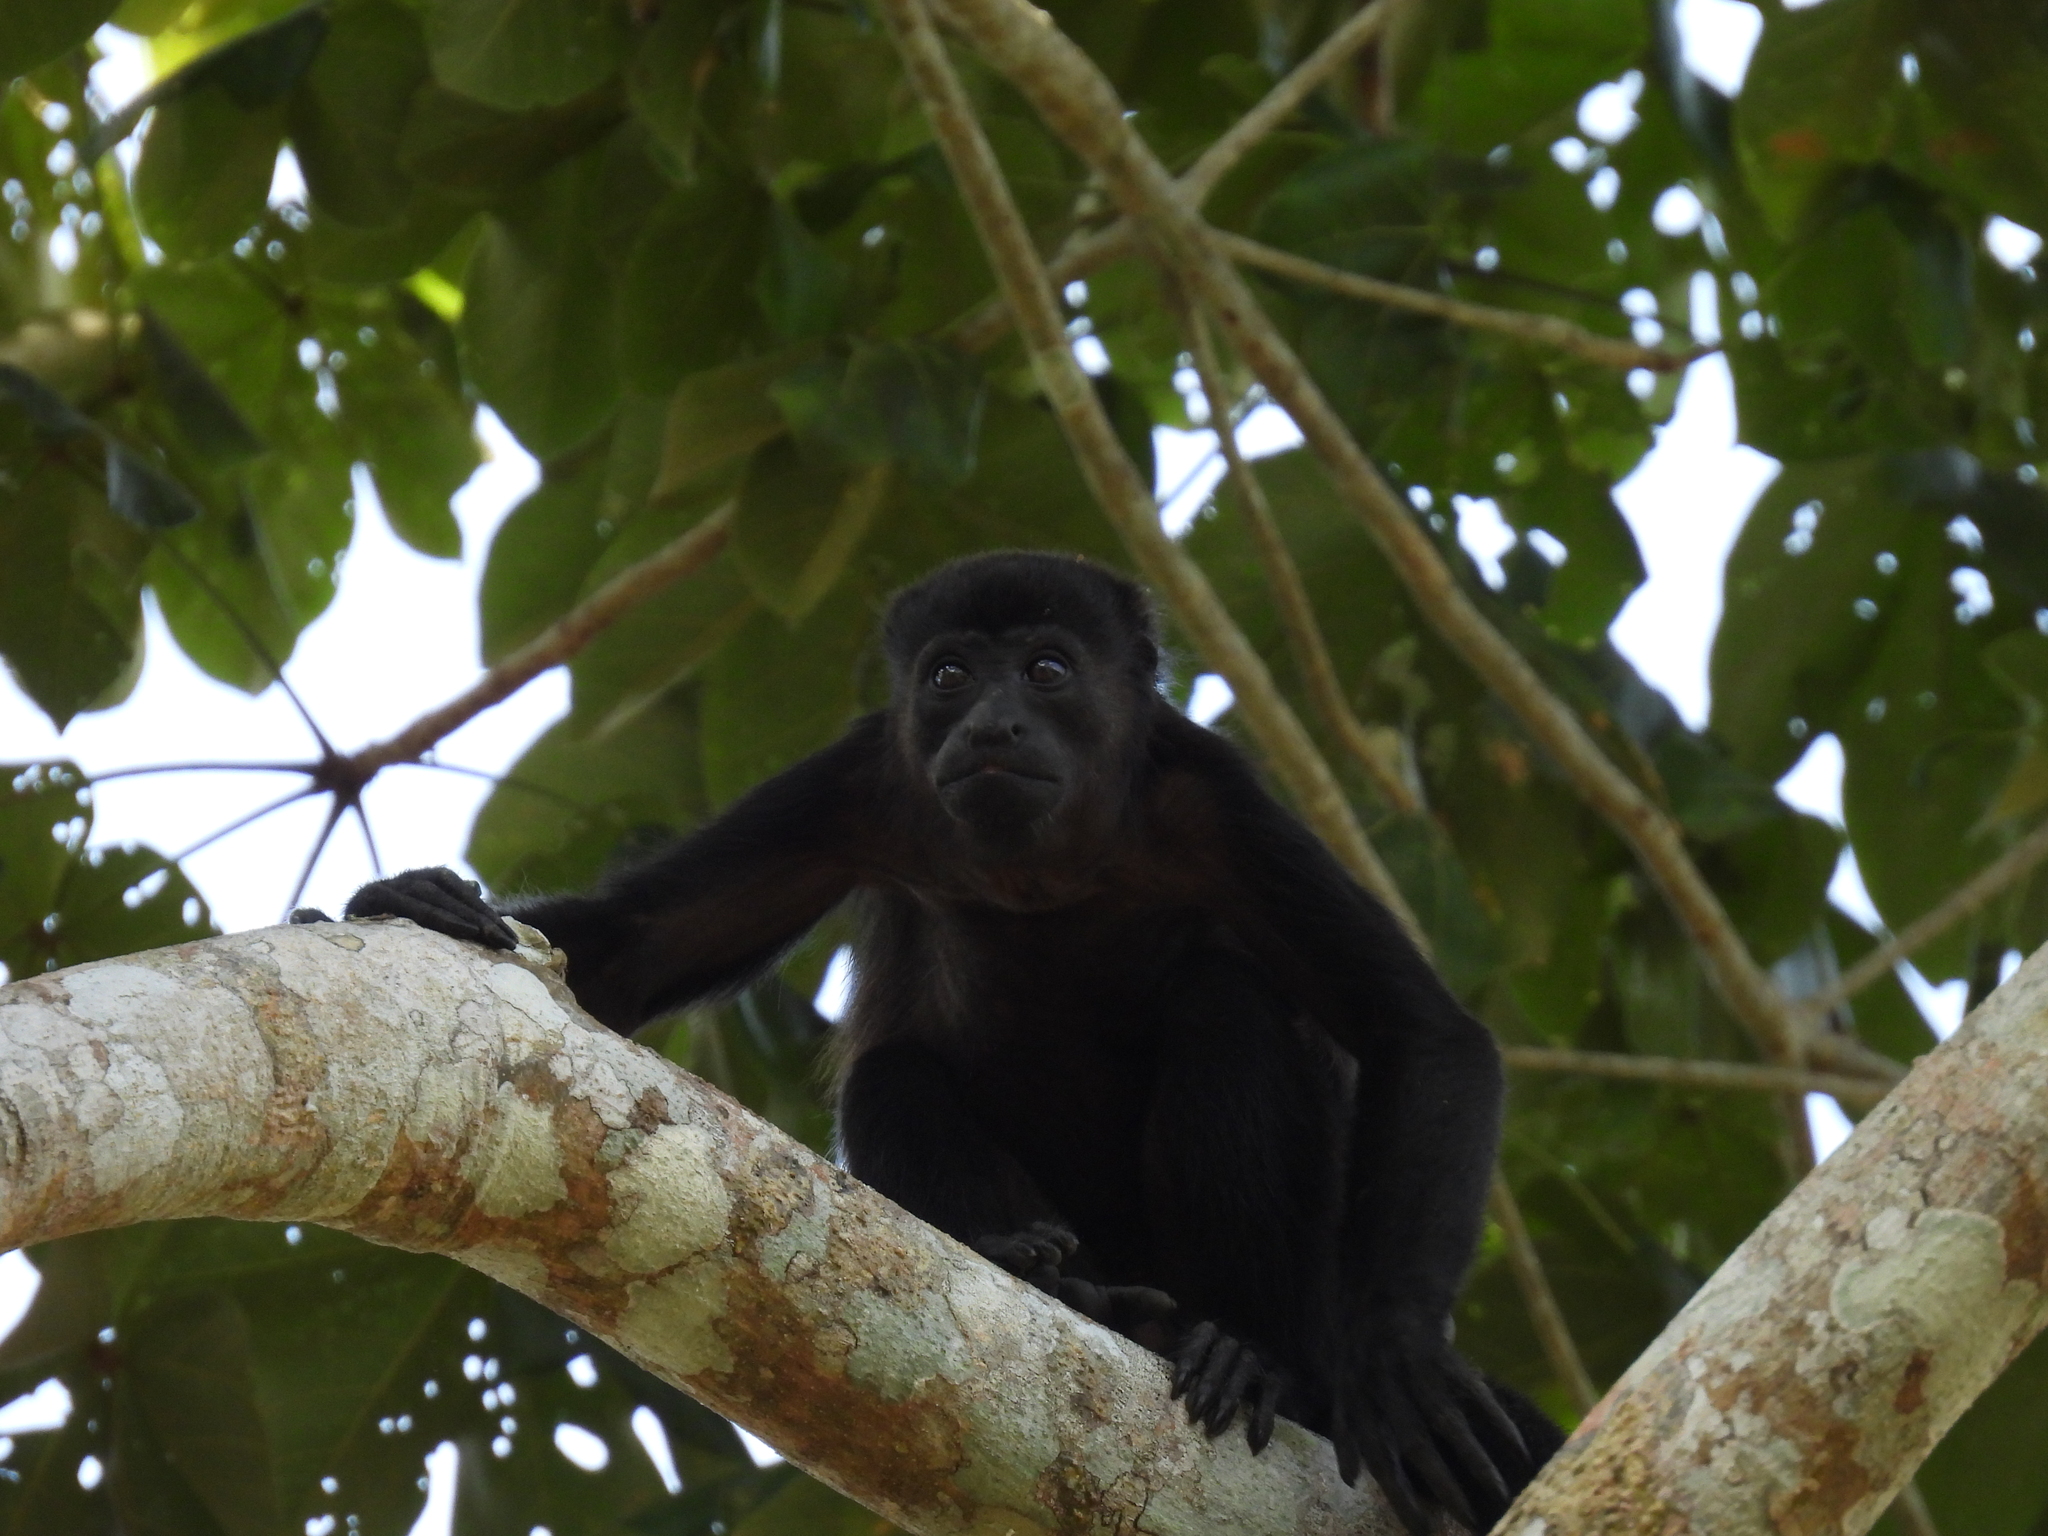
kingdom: Animalia
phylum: Chordata
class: Mammalia
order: Primates
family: Atelidae
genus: Alouatta
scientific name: Alouatta palliata
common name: Mantled howler
